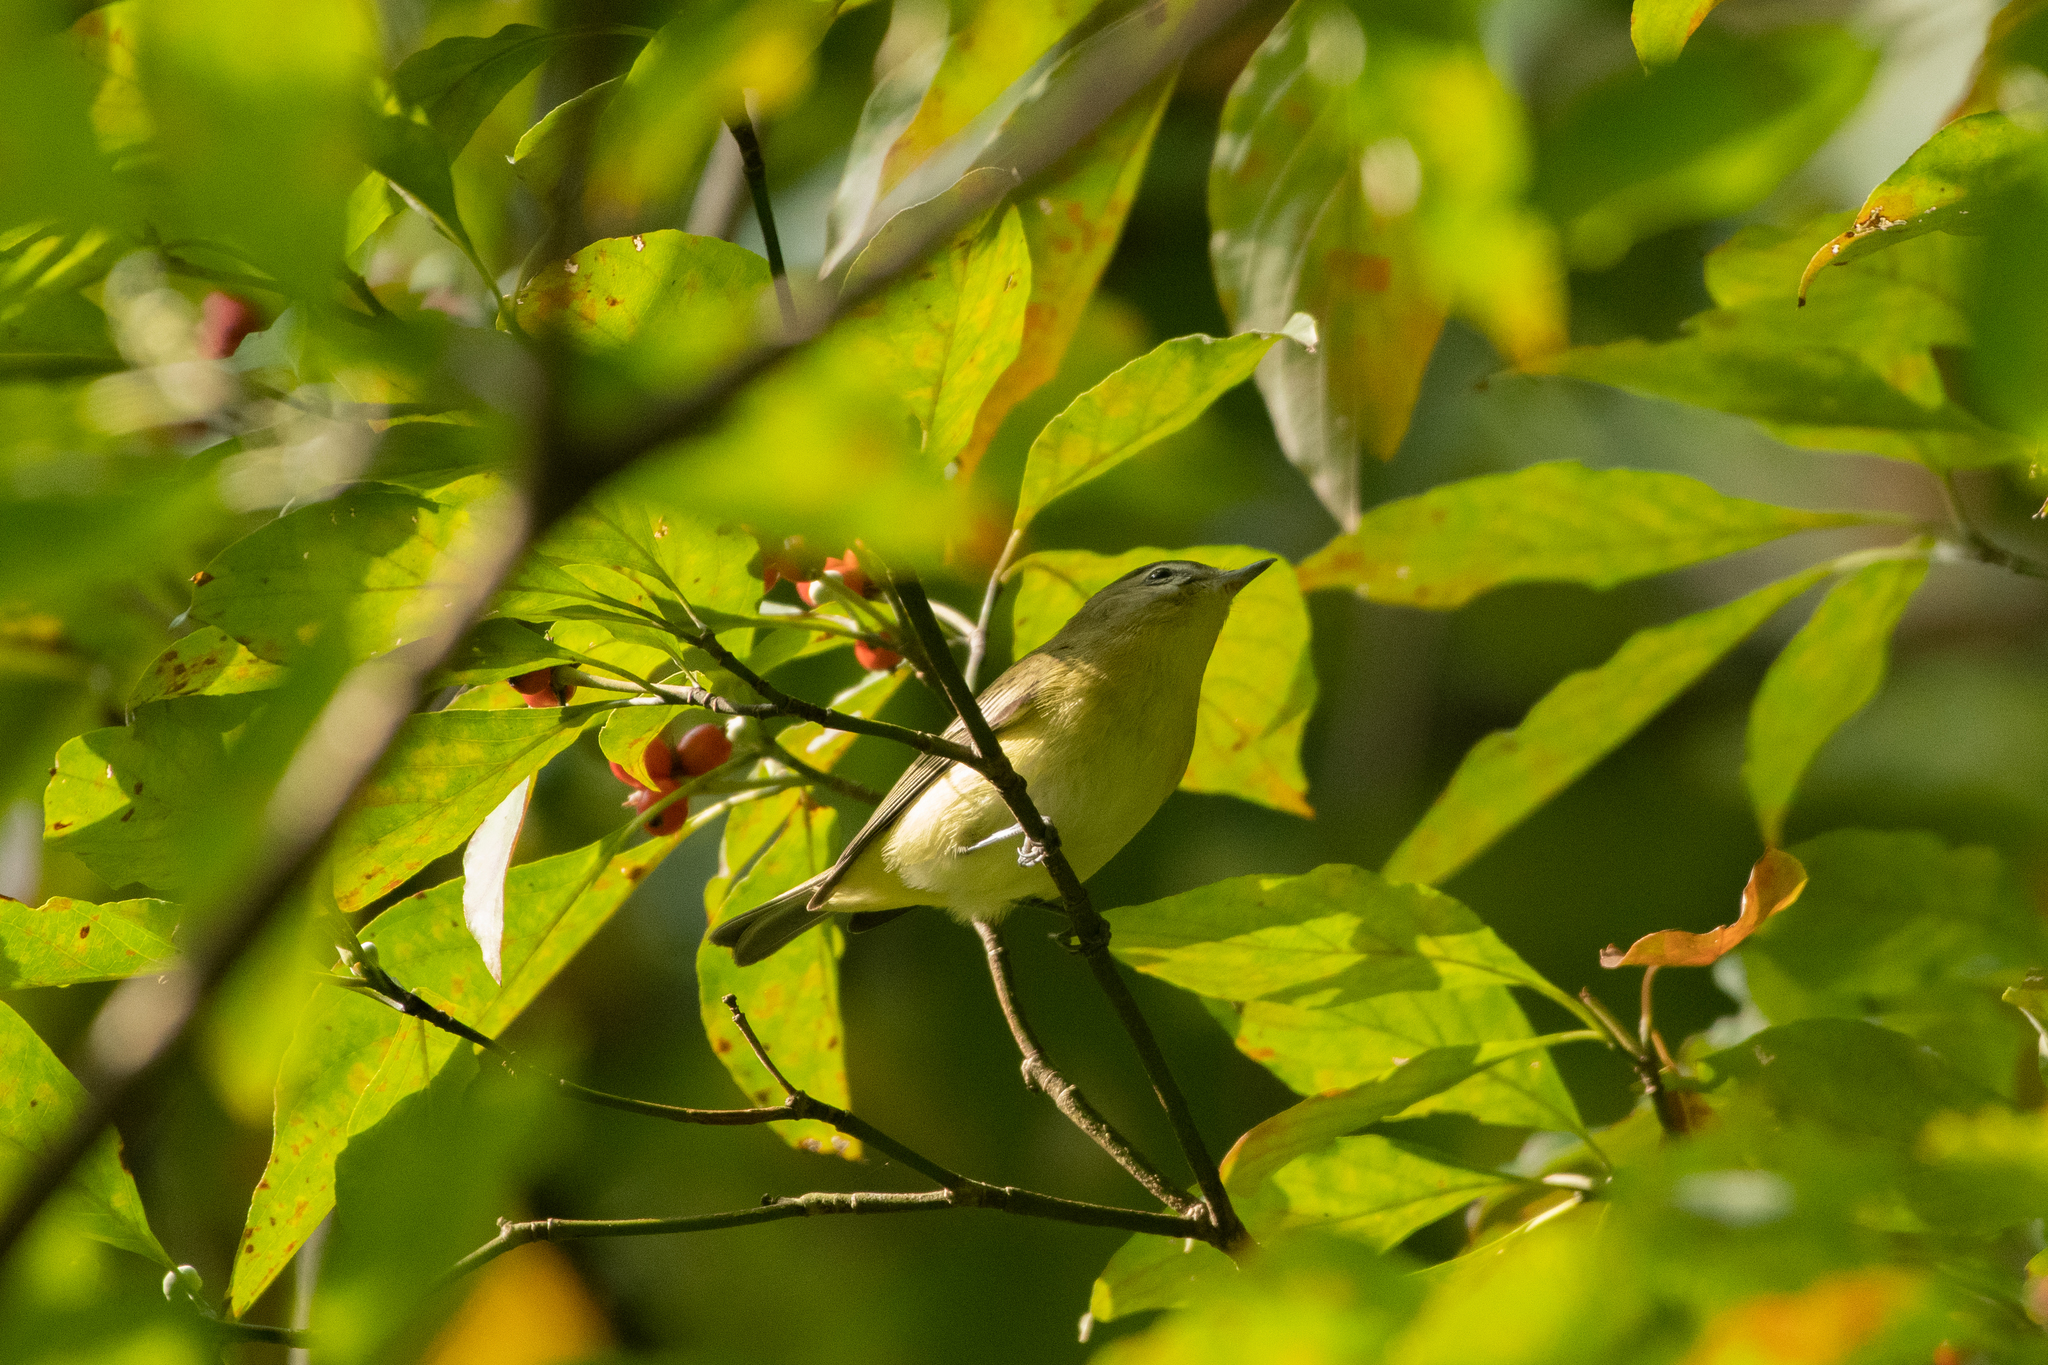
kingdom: Animalia
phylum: Chordata
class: Aves
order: Passeriformes
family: Vireonidae
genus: Vireo
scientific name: Vireo philadelphicus
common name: Philadelphia vireo
